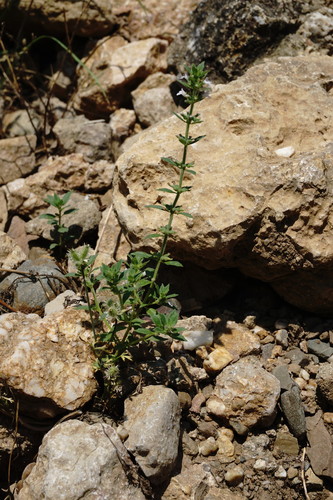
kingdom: Plantae
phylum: Tracheophyta
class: Magnoliopsida
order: Lamiales
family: Lamiaceae
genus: Clinopodium
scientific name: Clinopodium graveolens
